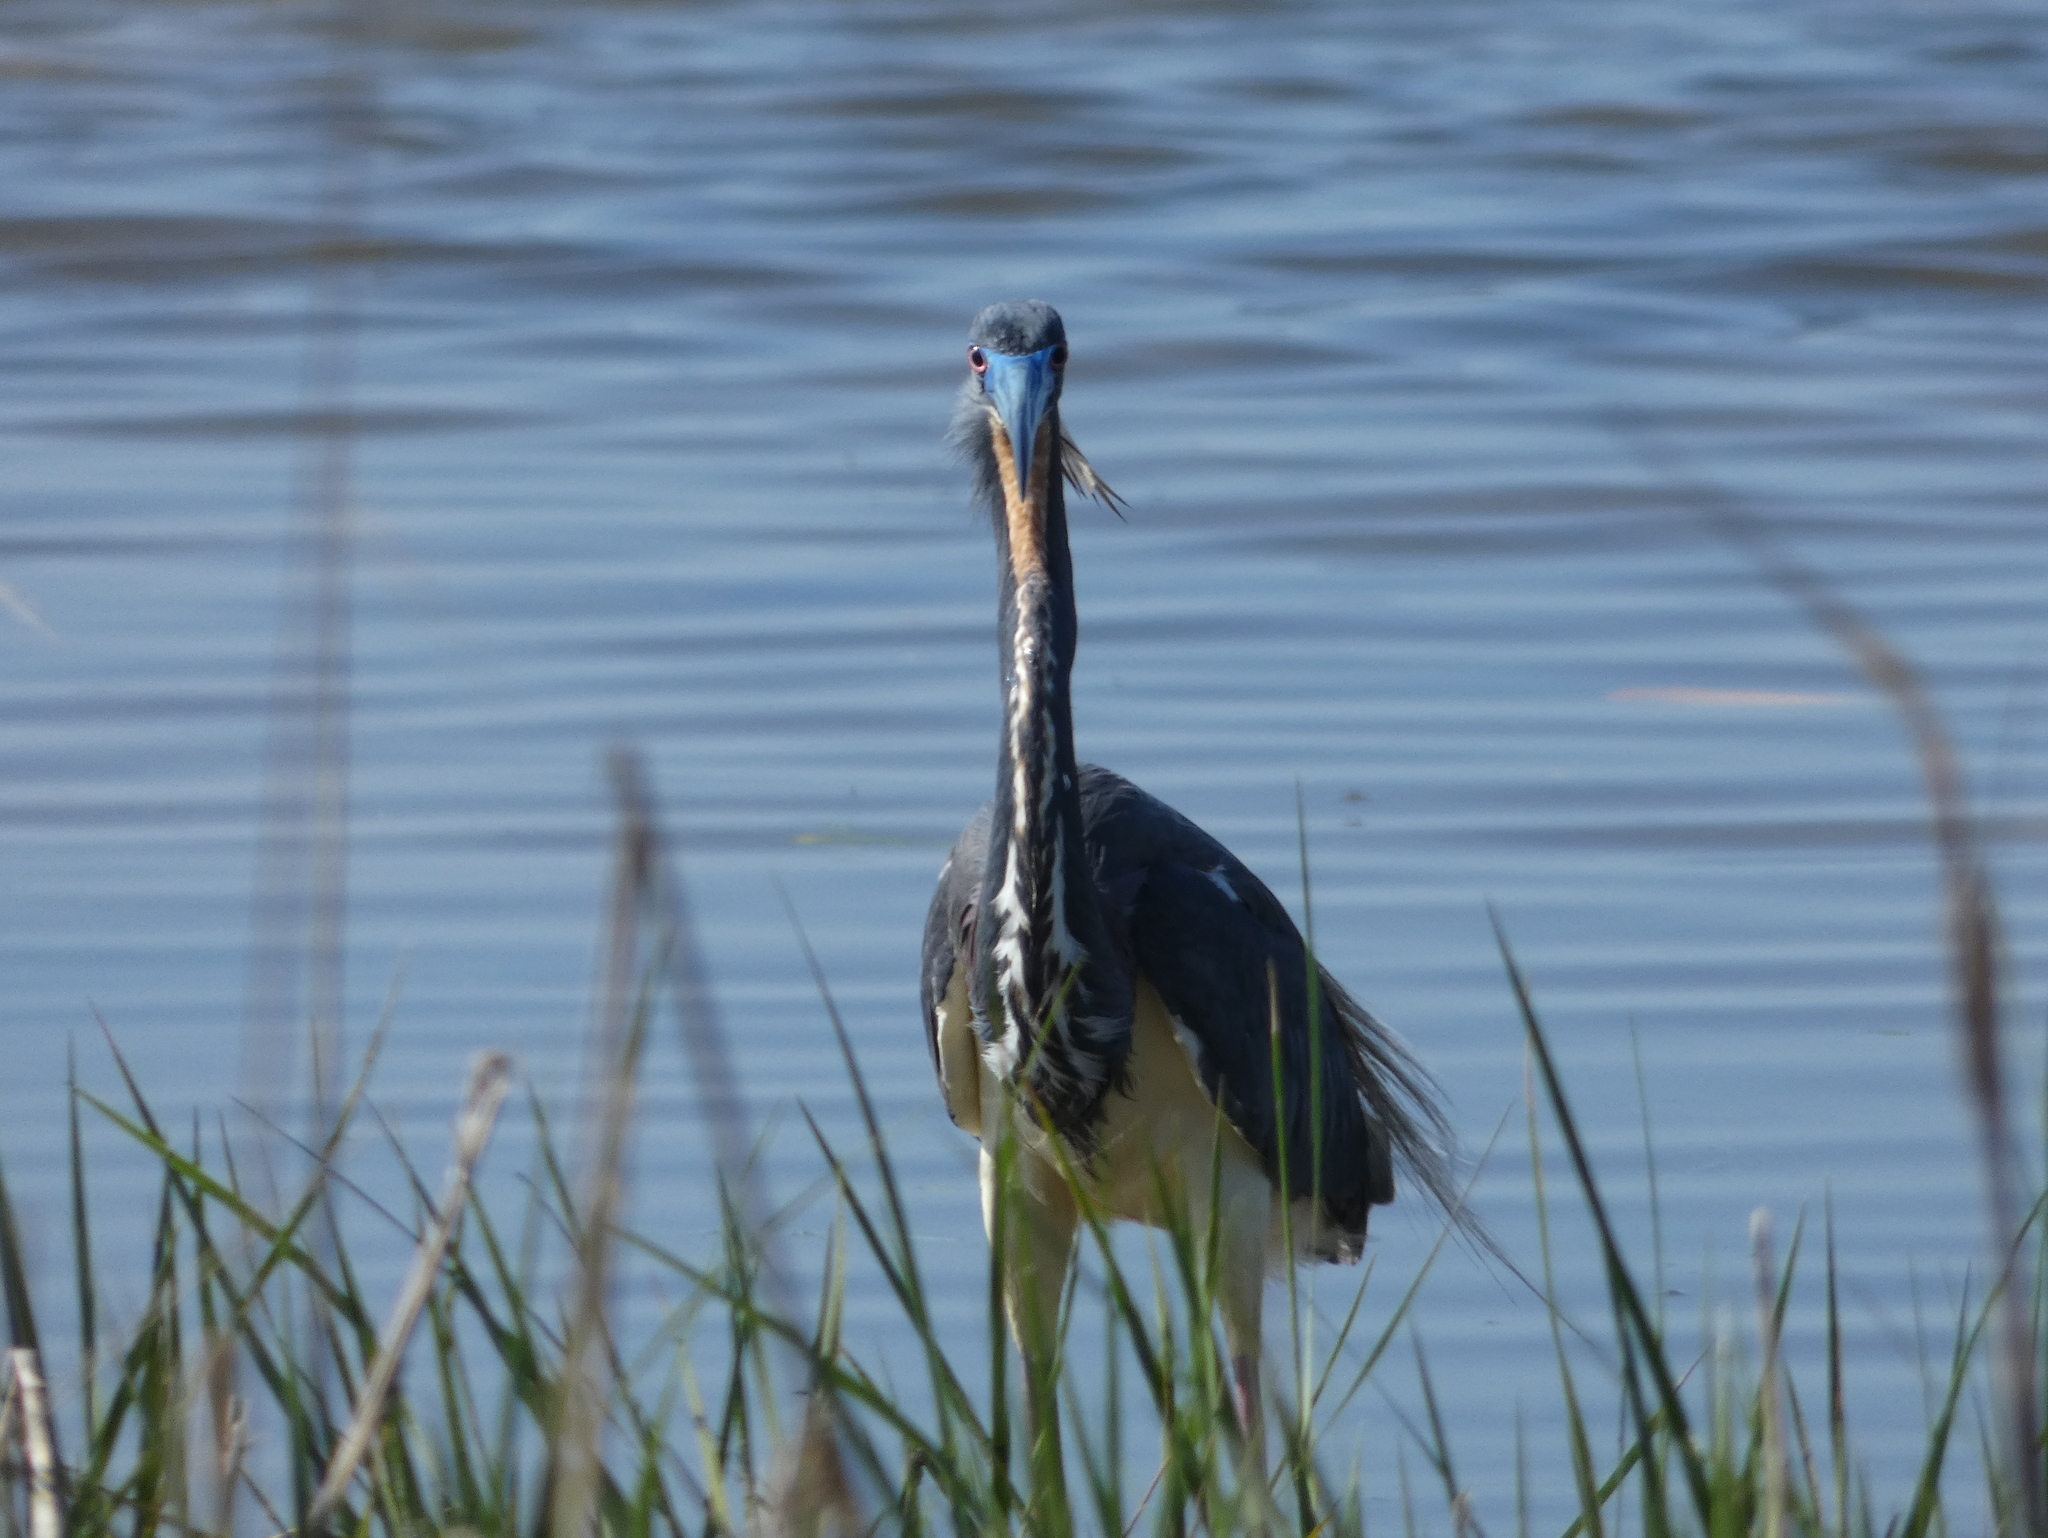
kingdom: Animalia
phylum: Chordata
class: Aves
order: Pelecaniformes
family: Ardeidae
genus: Egretta
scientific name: Egretta tricolor
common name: Tricolored heron
